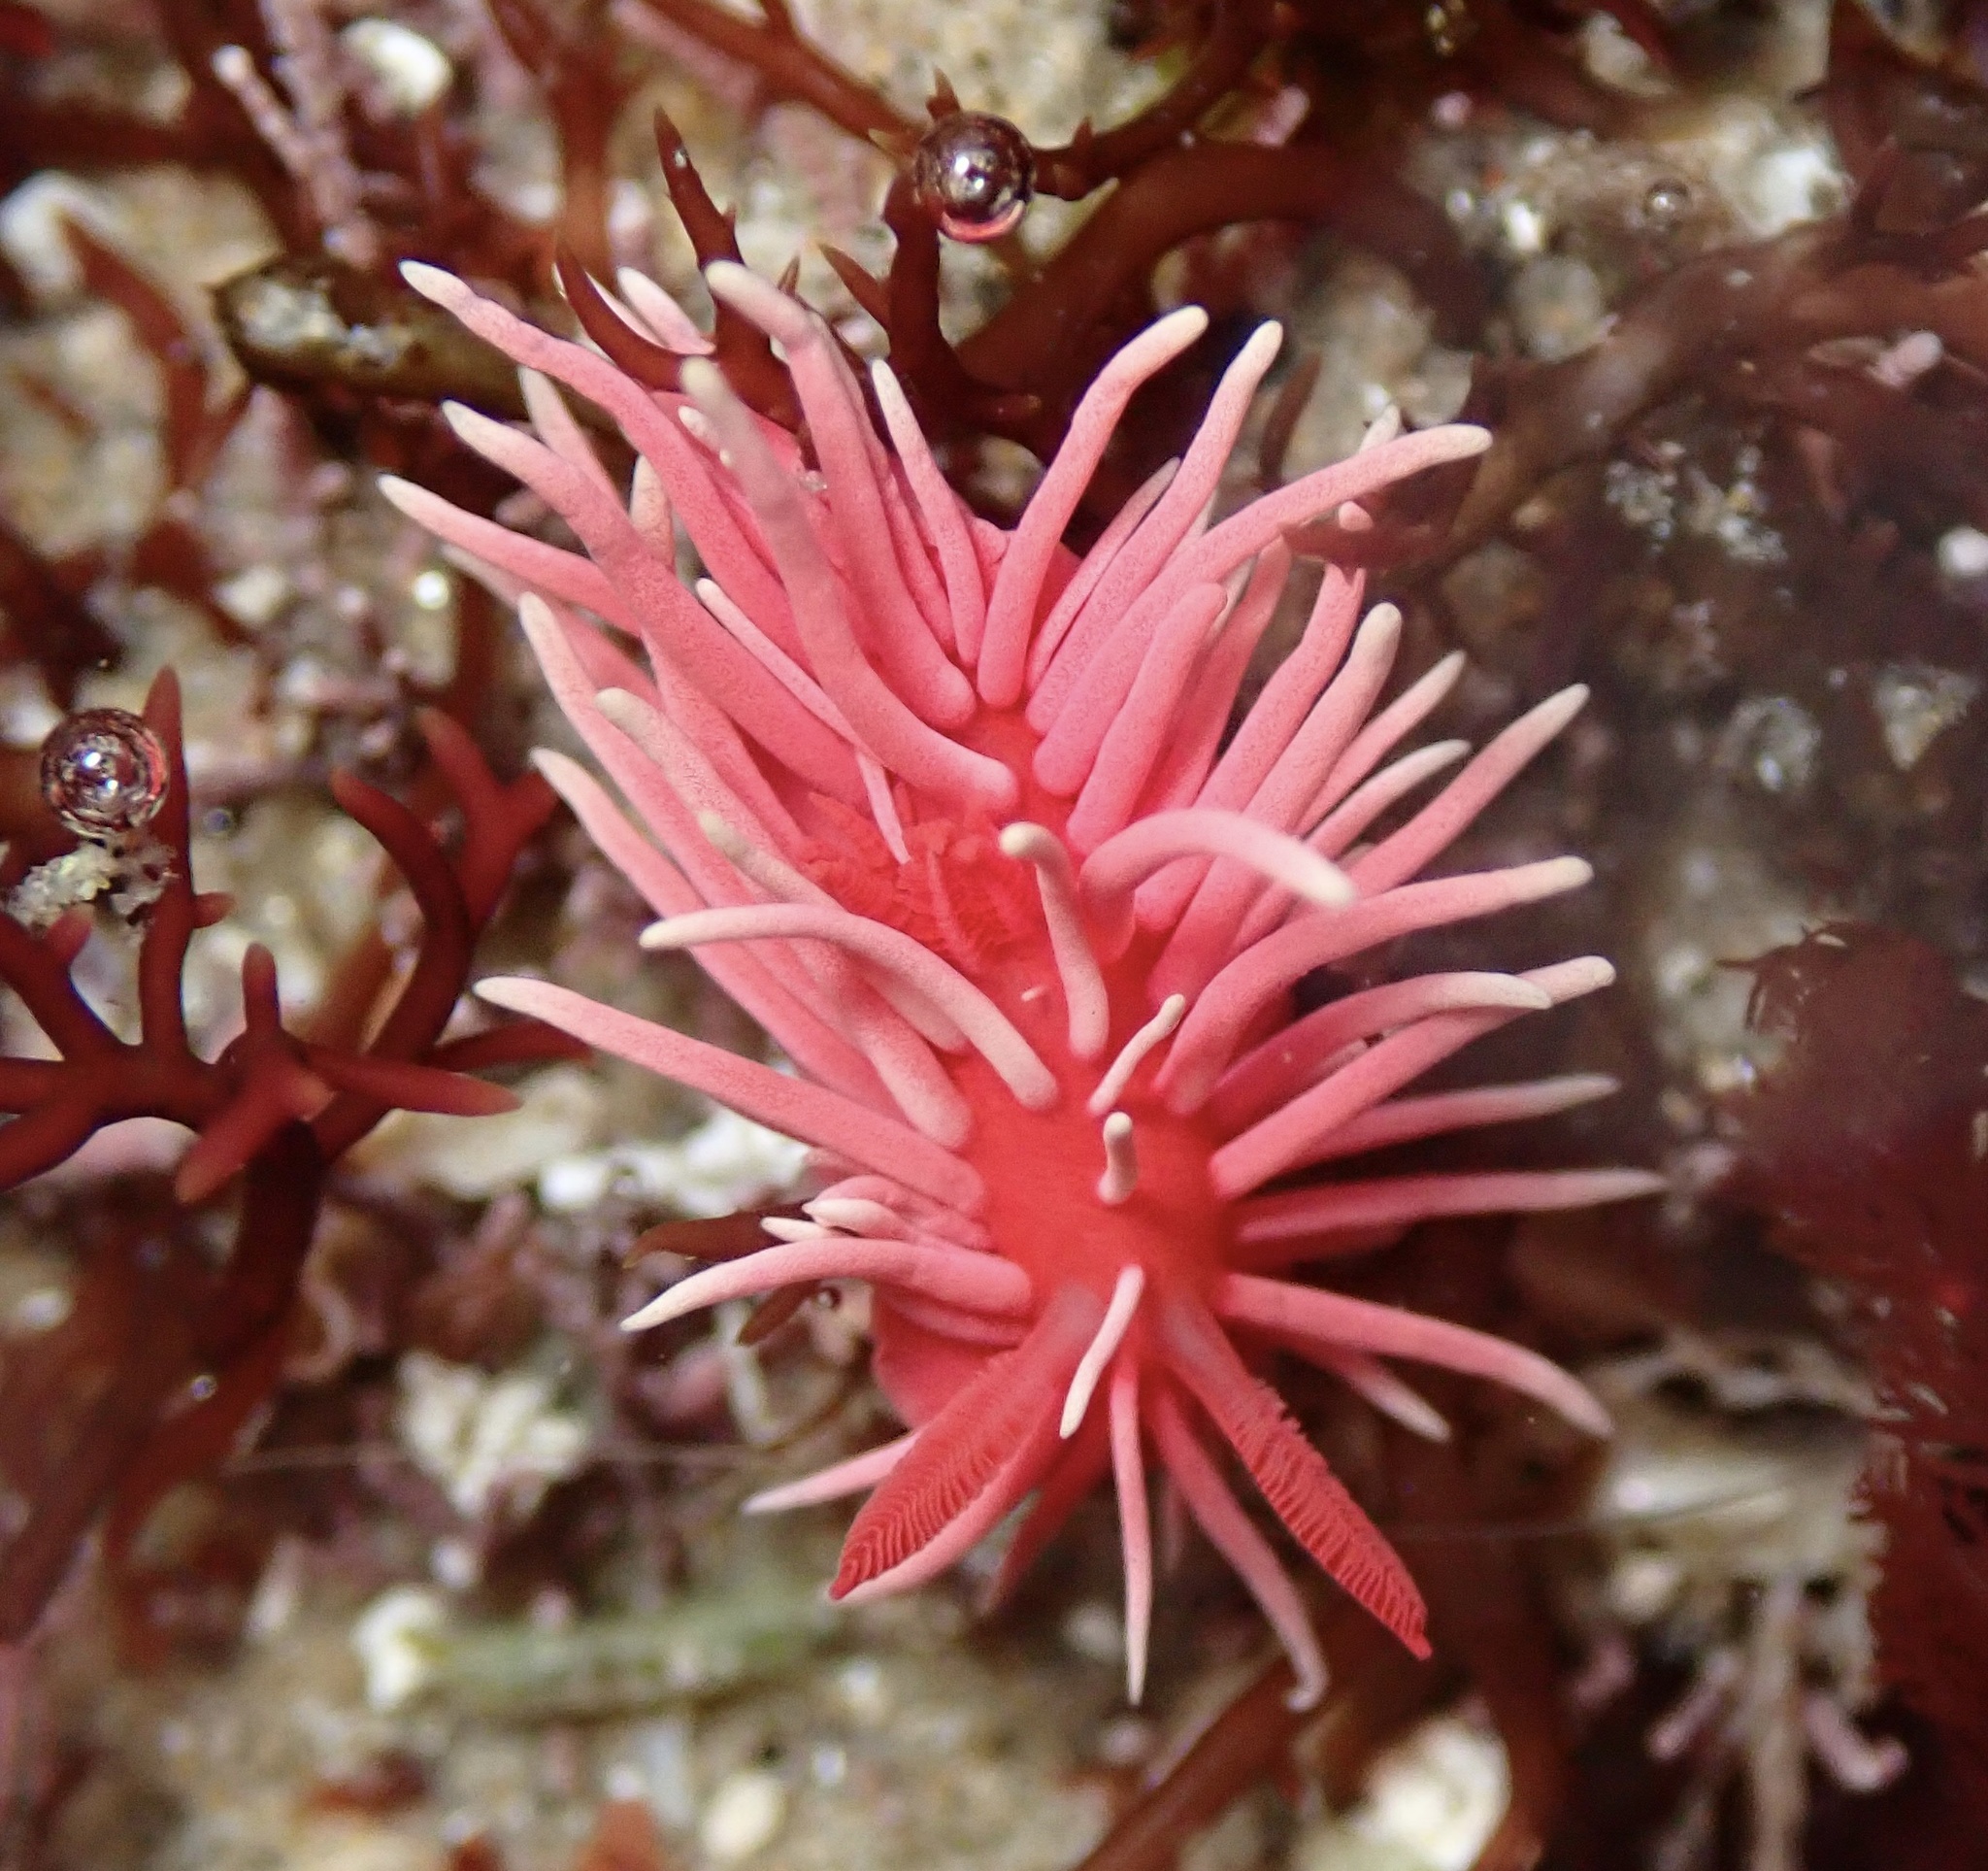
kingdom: Animalia
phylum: Mollusca
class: Gastropoda
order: Nudibranchia
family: Goniodorididae
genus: Okenia
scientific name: Okenia
